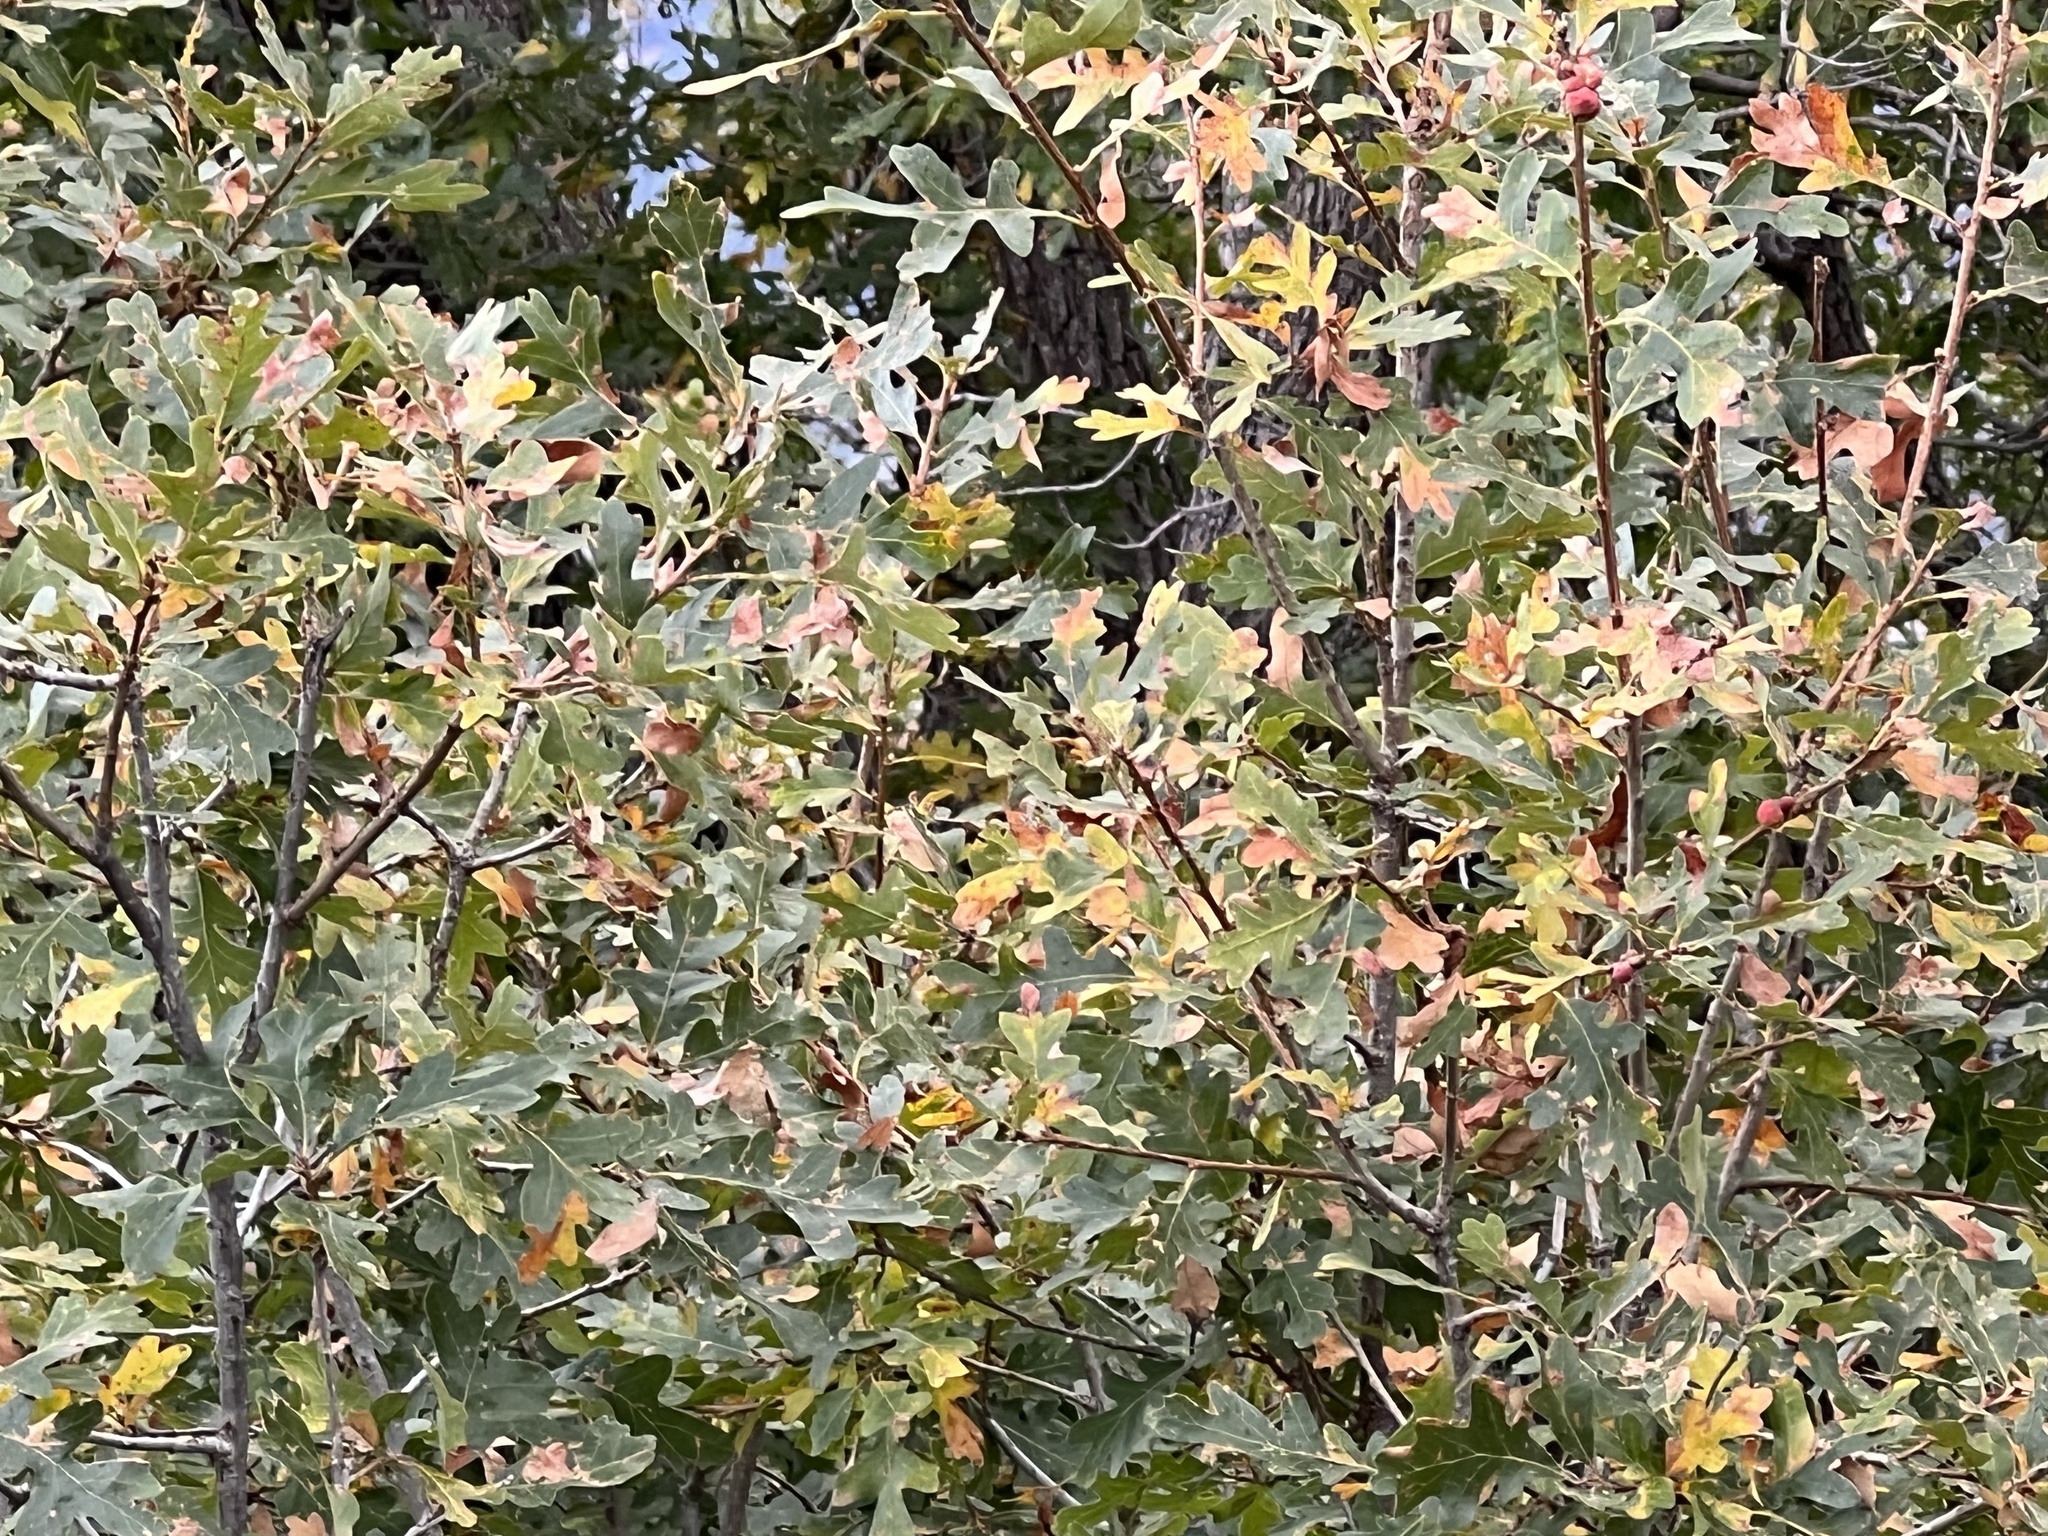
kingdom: Plantae
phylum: Tracheophyta
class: Magnoliopsida
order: Fagales
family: Fagaceae
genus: Quercus
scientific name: Quercus gambelii
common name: Gambel oak
